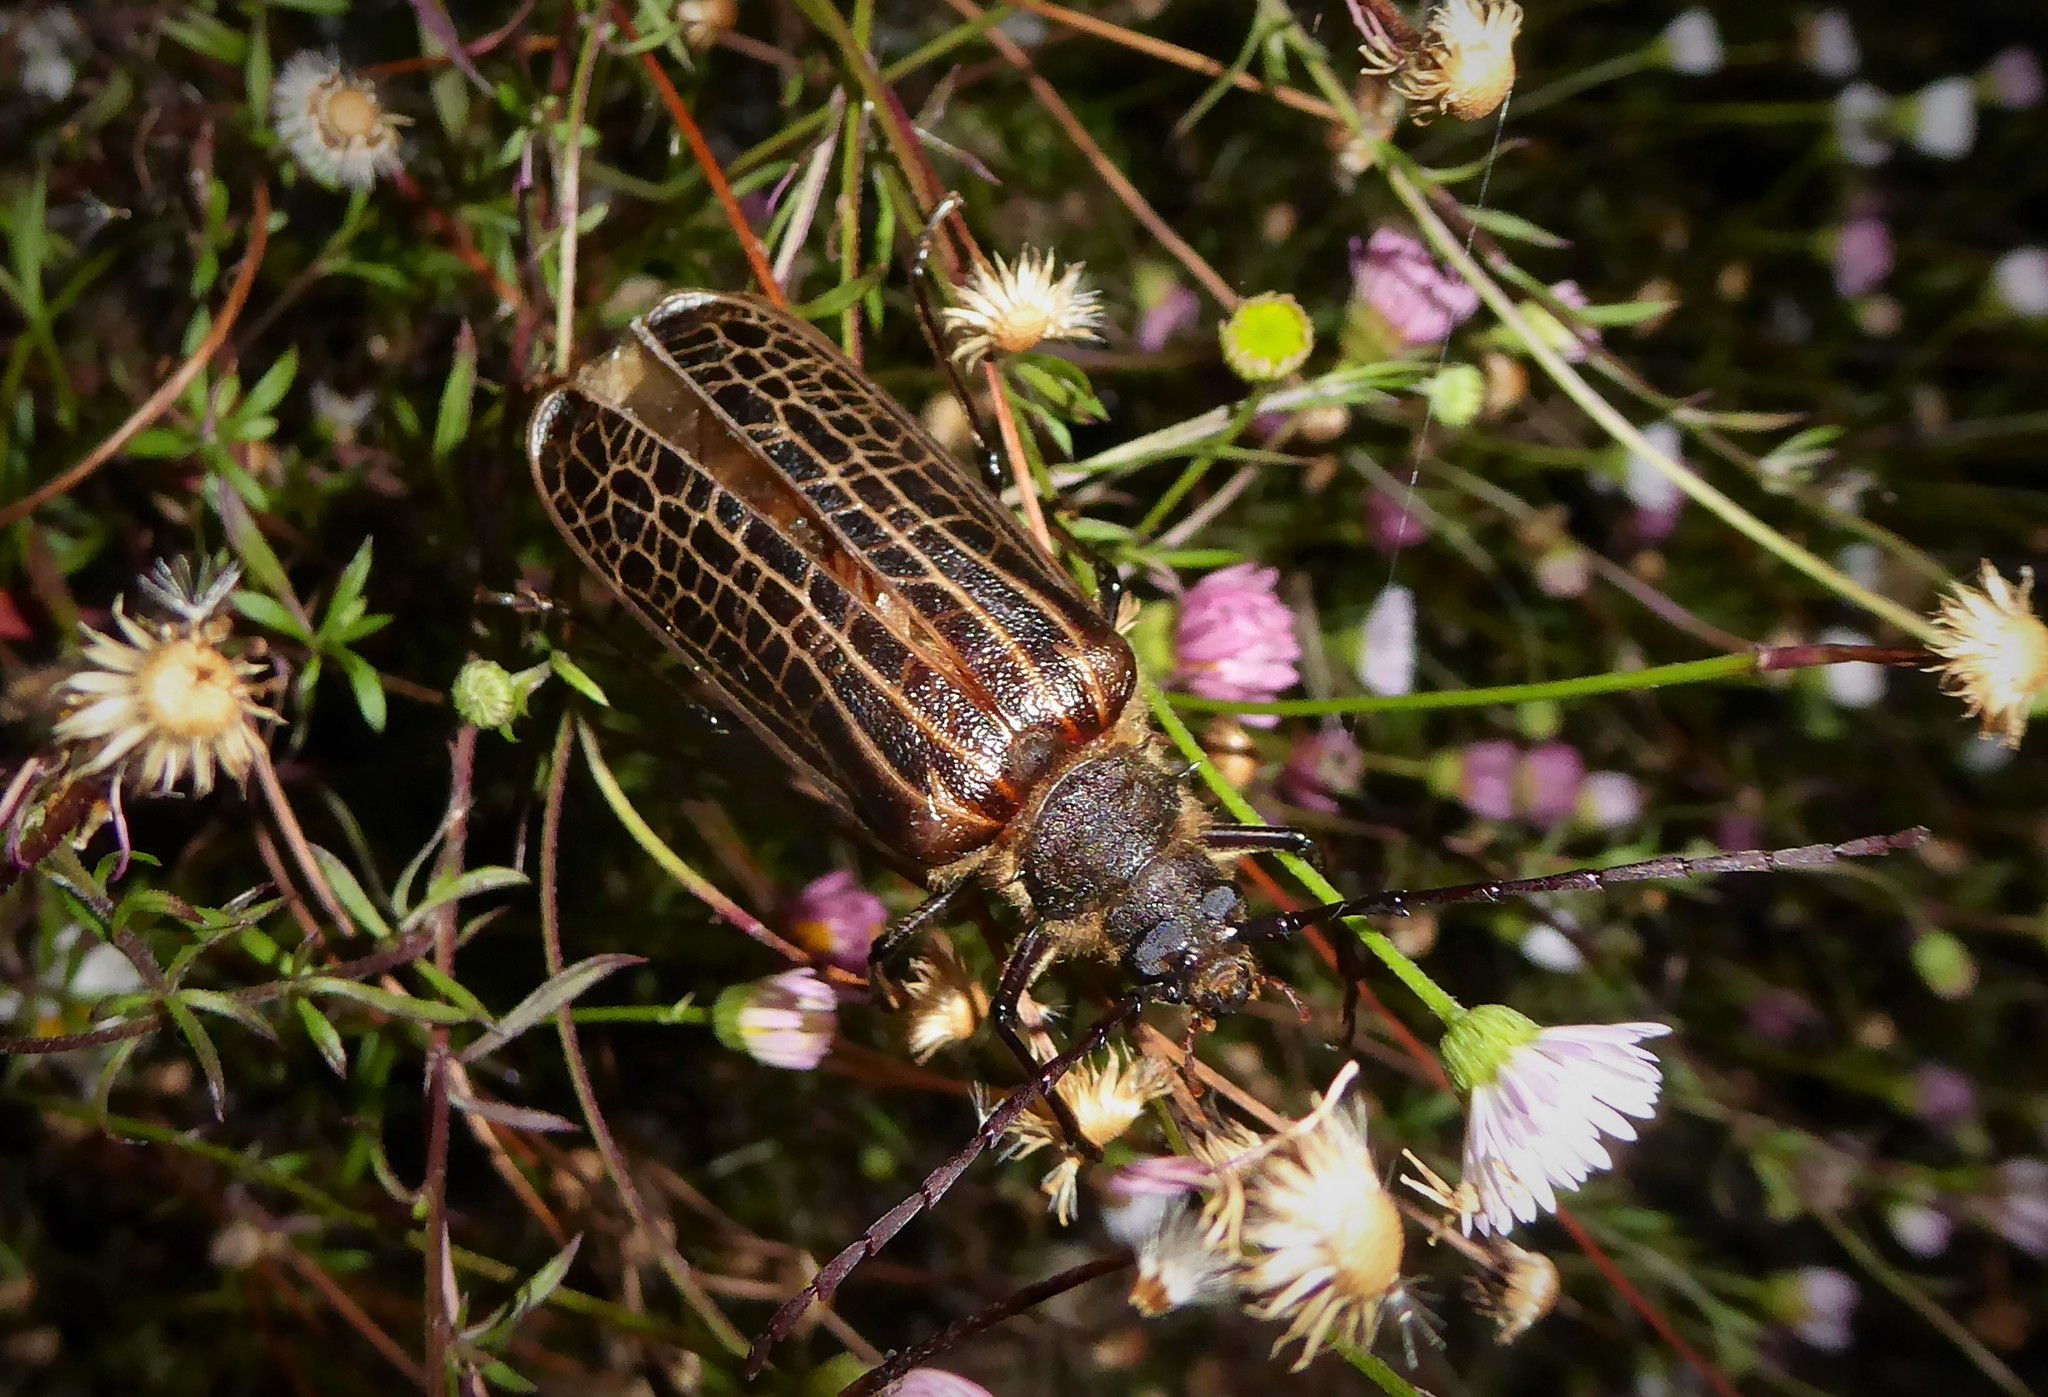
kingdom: Animalia
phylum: Arthropoda
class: Insecta
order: Coleoptera
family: Cerambycidae
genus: Prionoplus
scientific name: Prionoplus reticularis
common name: Huhu beetle
